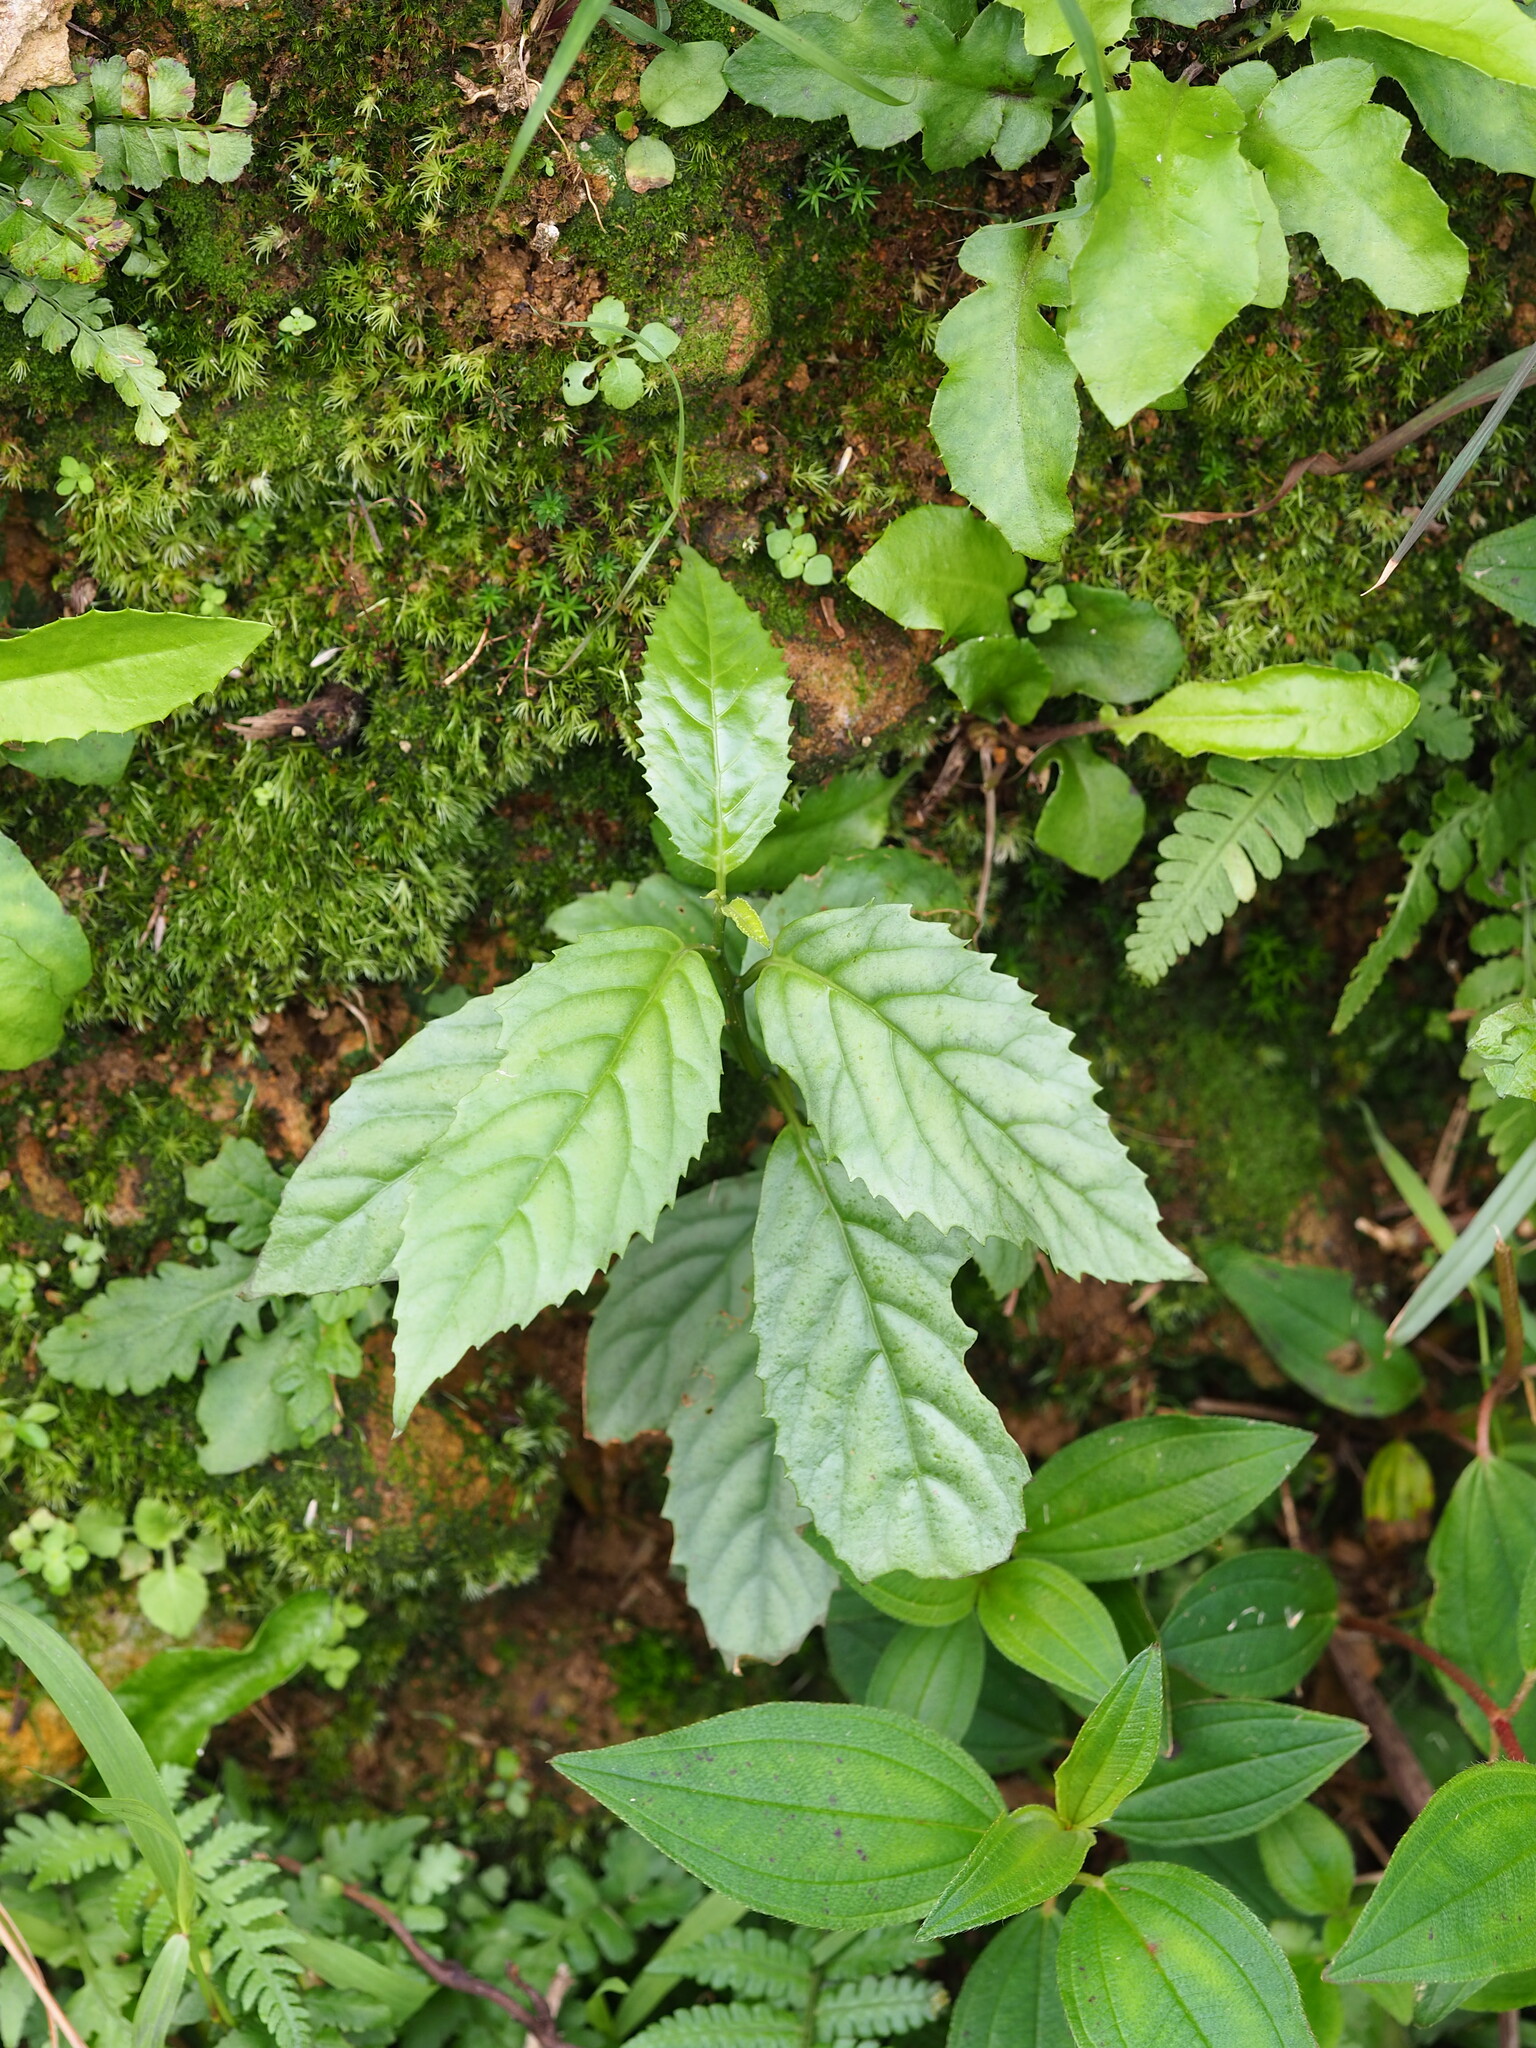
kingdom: Plantae
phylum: Tracheophyta
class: Magnoliopsida
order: Ericales
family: Primulaceae
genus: Maesa
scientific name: Maesa perlaria
